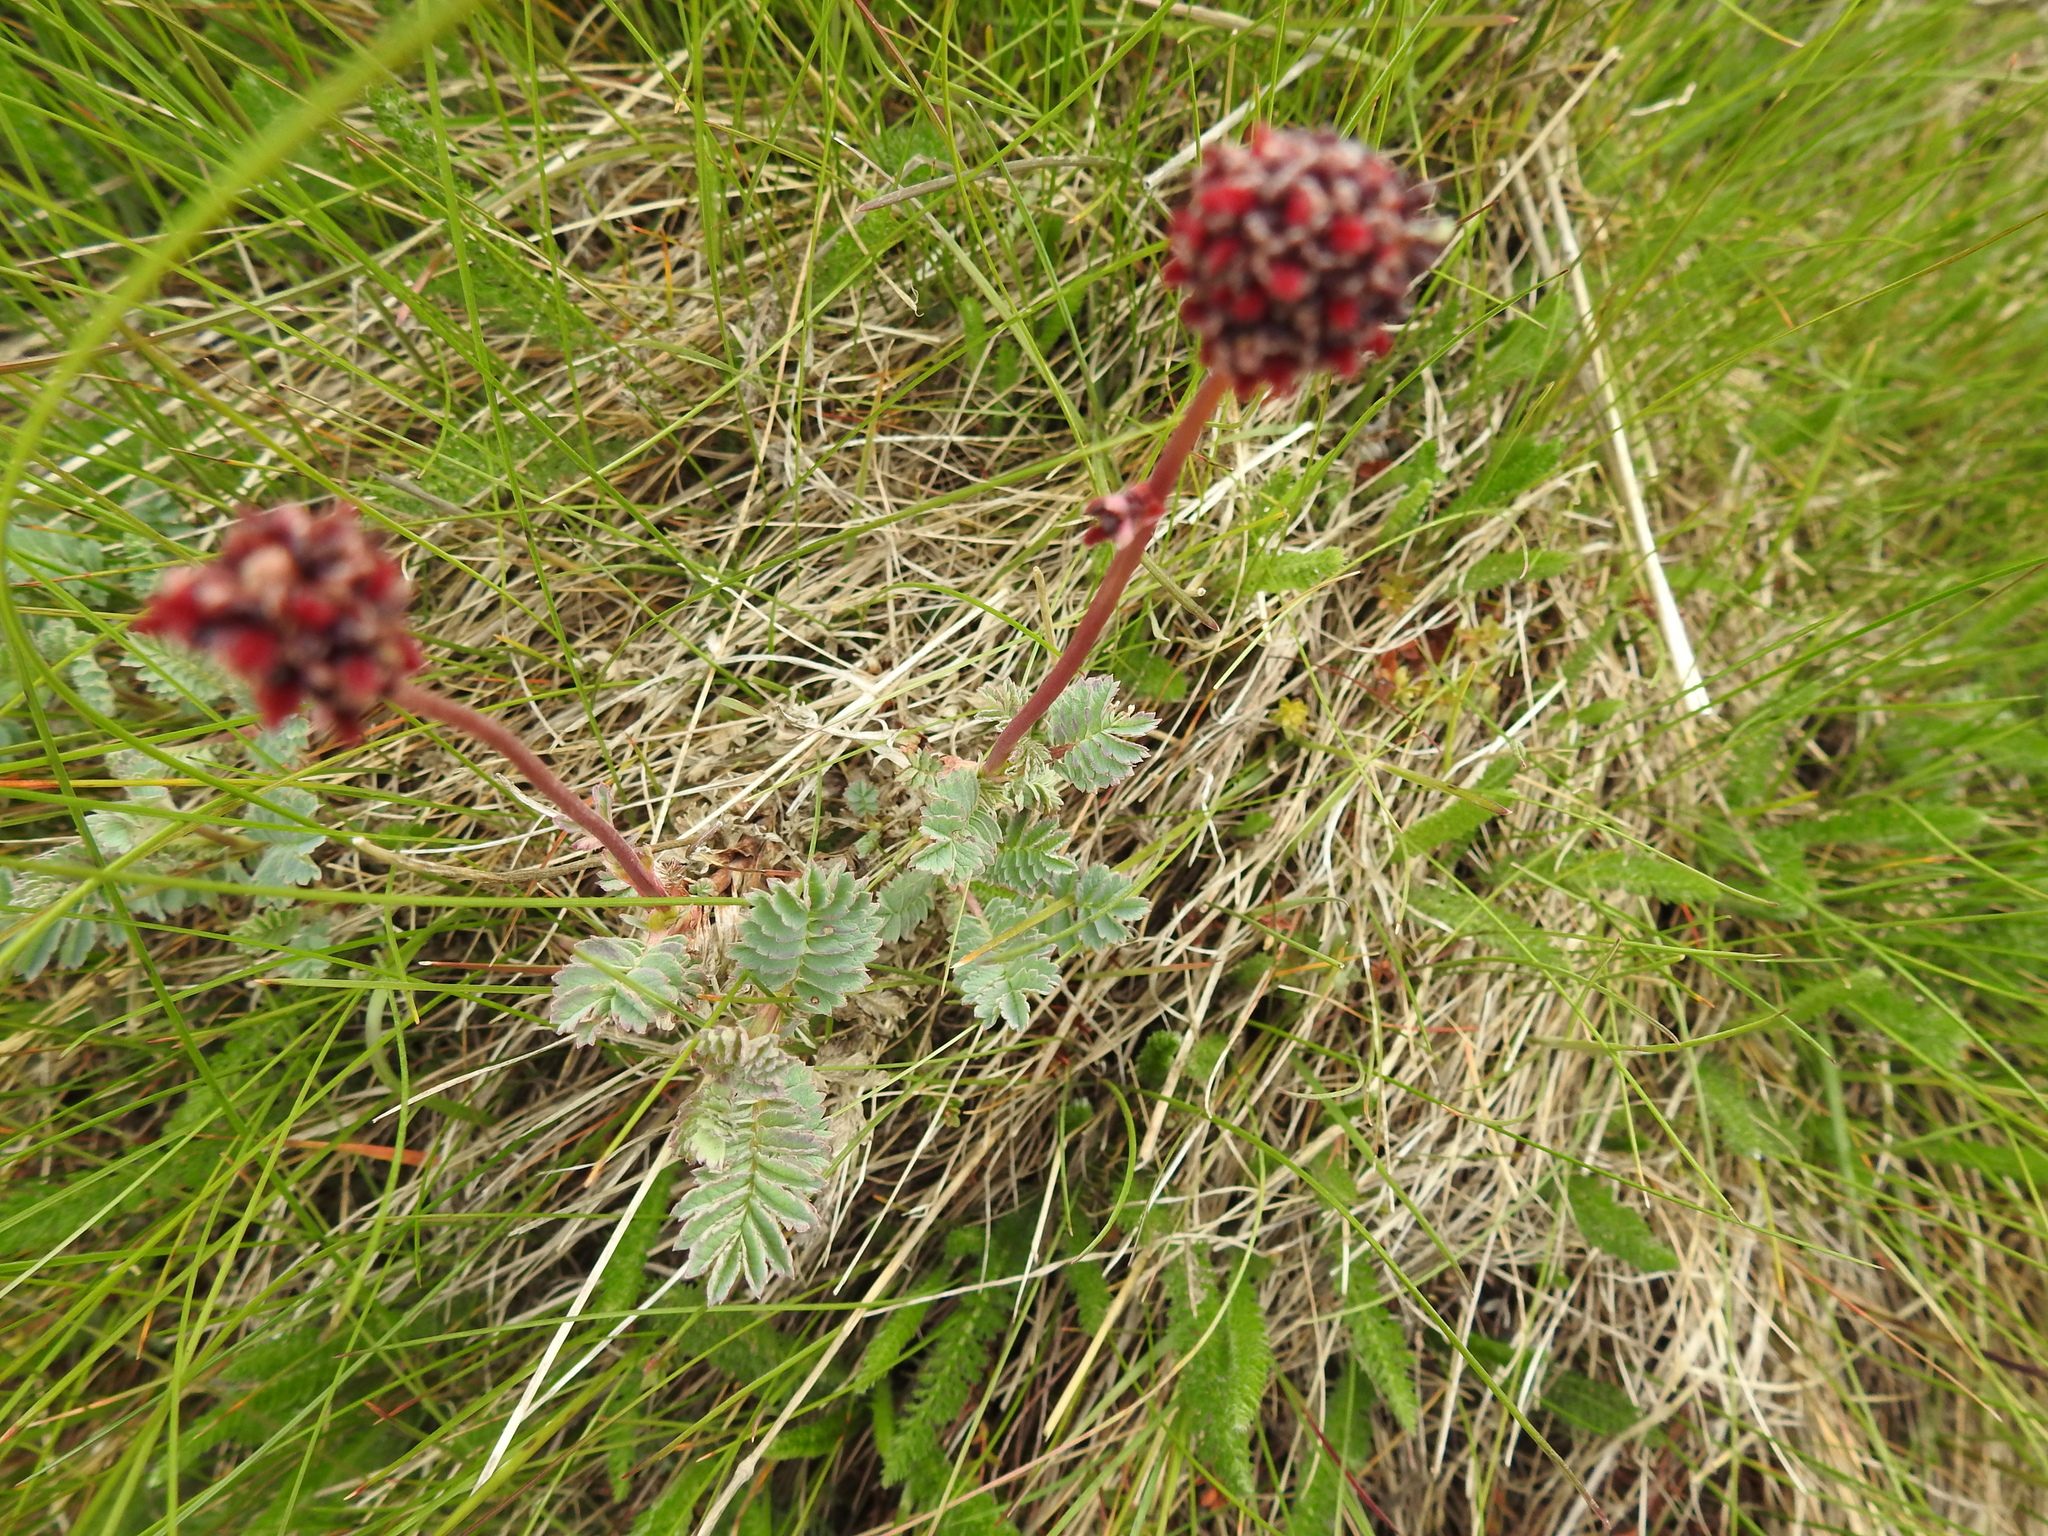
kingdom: Plantae
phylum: Tracheophyta
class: Magnoliopsida
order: Rosales
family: Rosaceae
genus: Acaena
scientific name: Acaena magellanica
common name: New zealand burr
